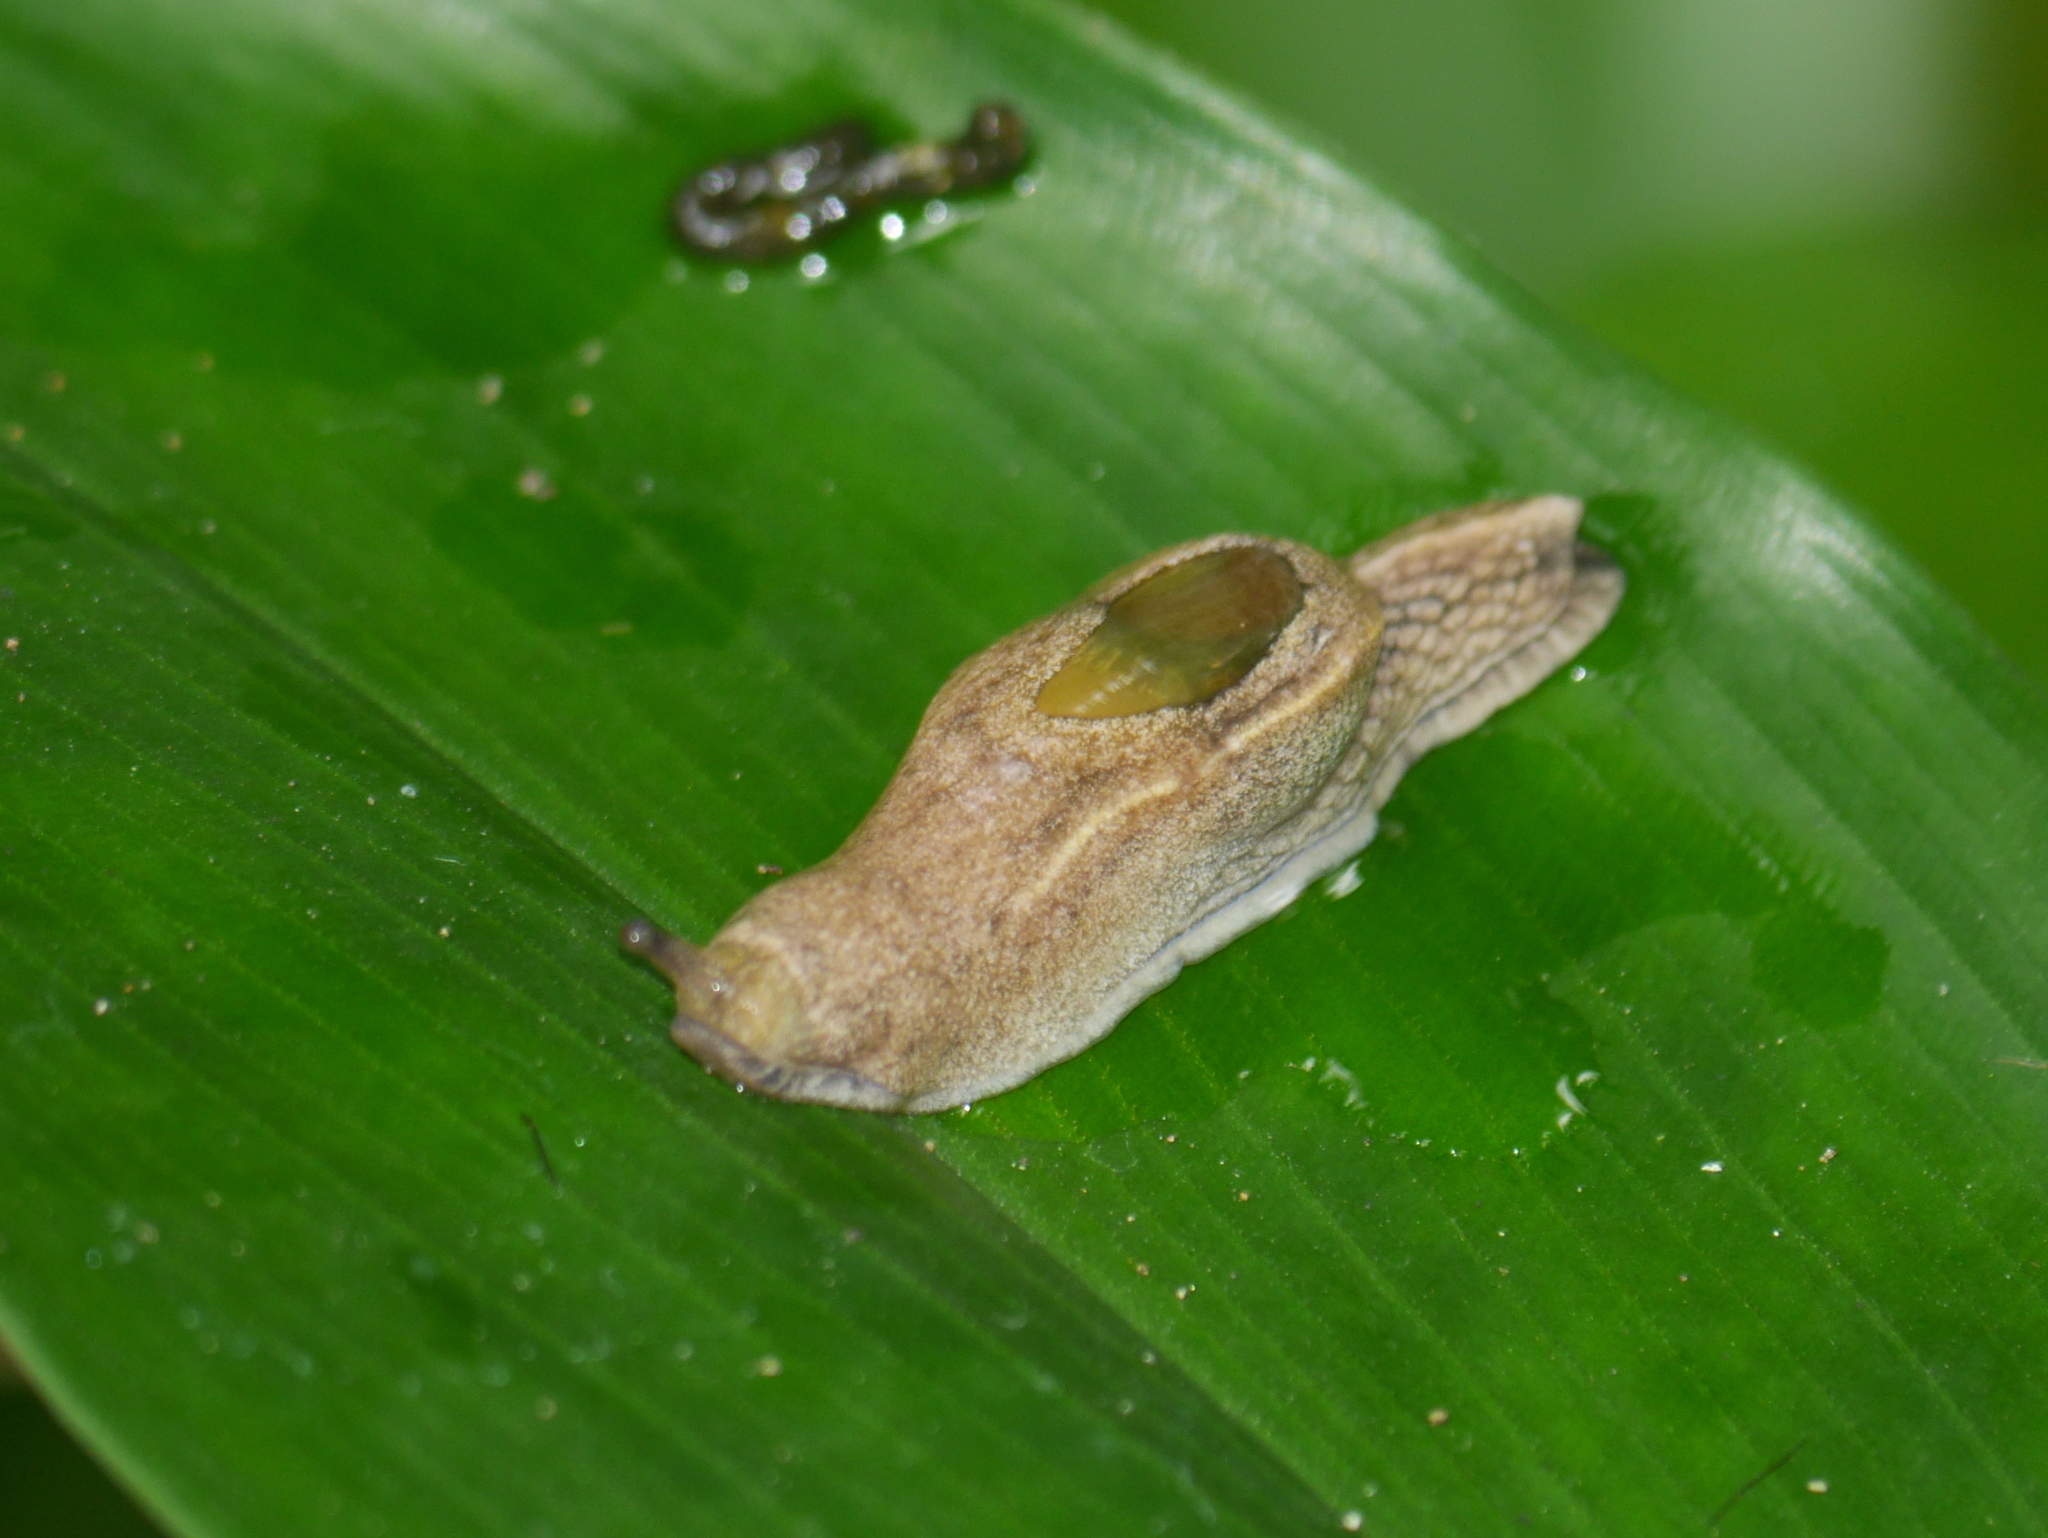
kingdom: Animalia
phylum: Mollusca
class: Gastropoda
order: Stylommatophora
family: Ariophantidae
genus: Parmarion
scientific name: Parmarion martensi
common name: Semi-slug
